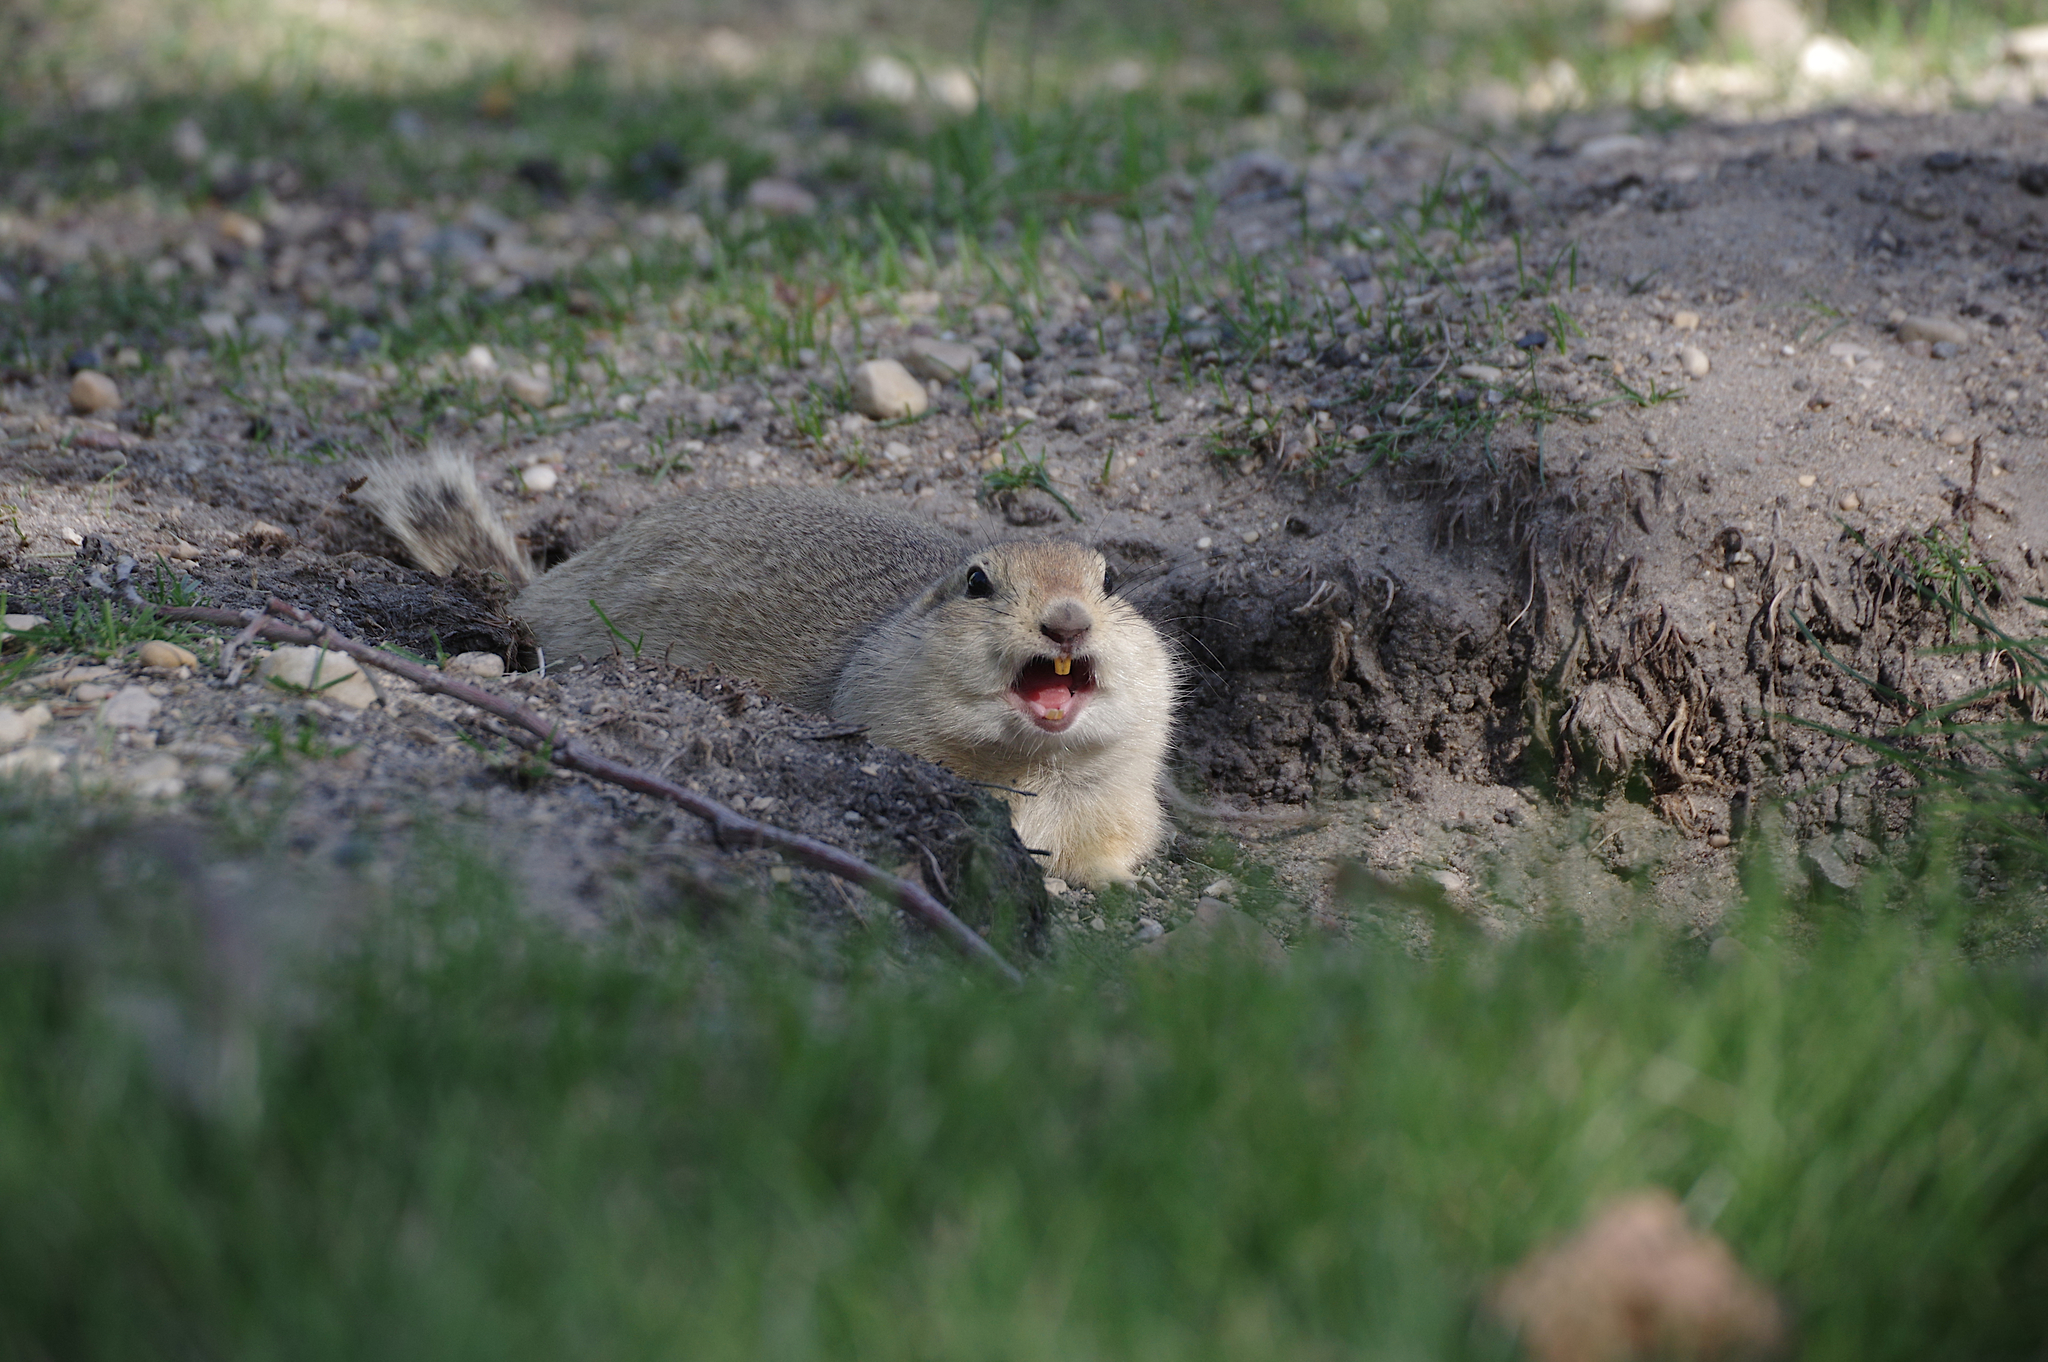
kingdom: Animalia
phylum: Chordata
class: Mammalia
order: Rodentia
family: Sciuridae
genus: Urocitellus
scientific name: Urocitellus richardsonii
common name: Richardson's ground squirrel
